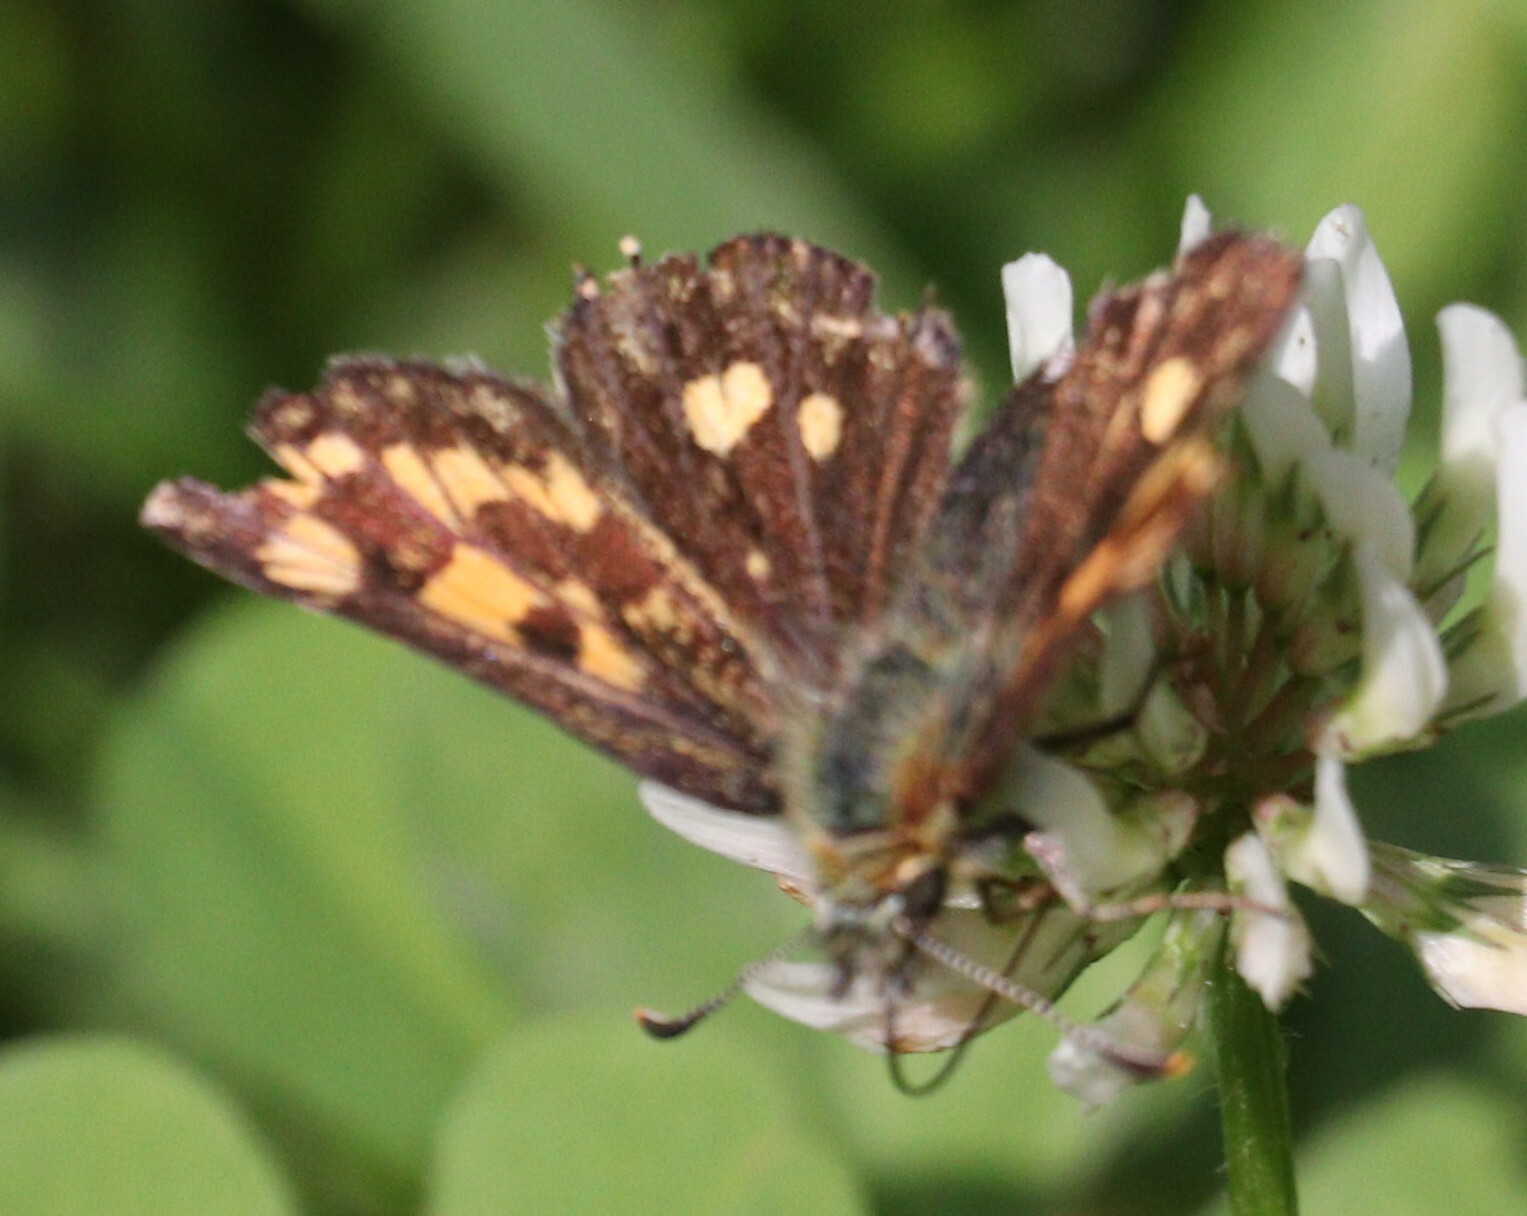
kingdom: Animalia
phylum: Arthropoda
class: Insecta
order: Lepidoptera
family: Hesperiidae
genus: Carterocephalus
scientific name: Carterocephalus palaemon
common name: Chequered skipper
